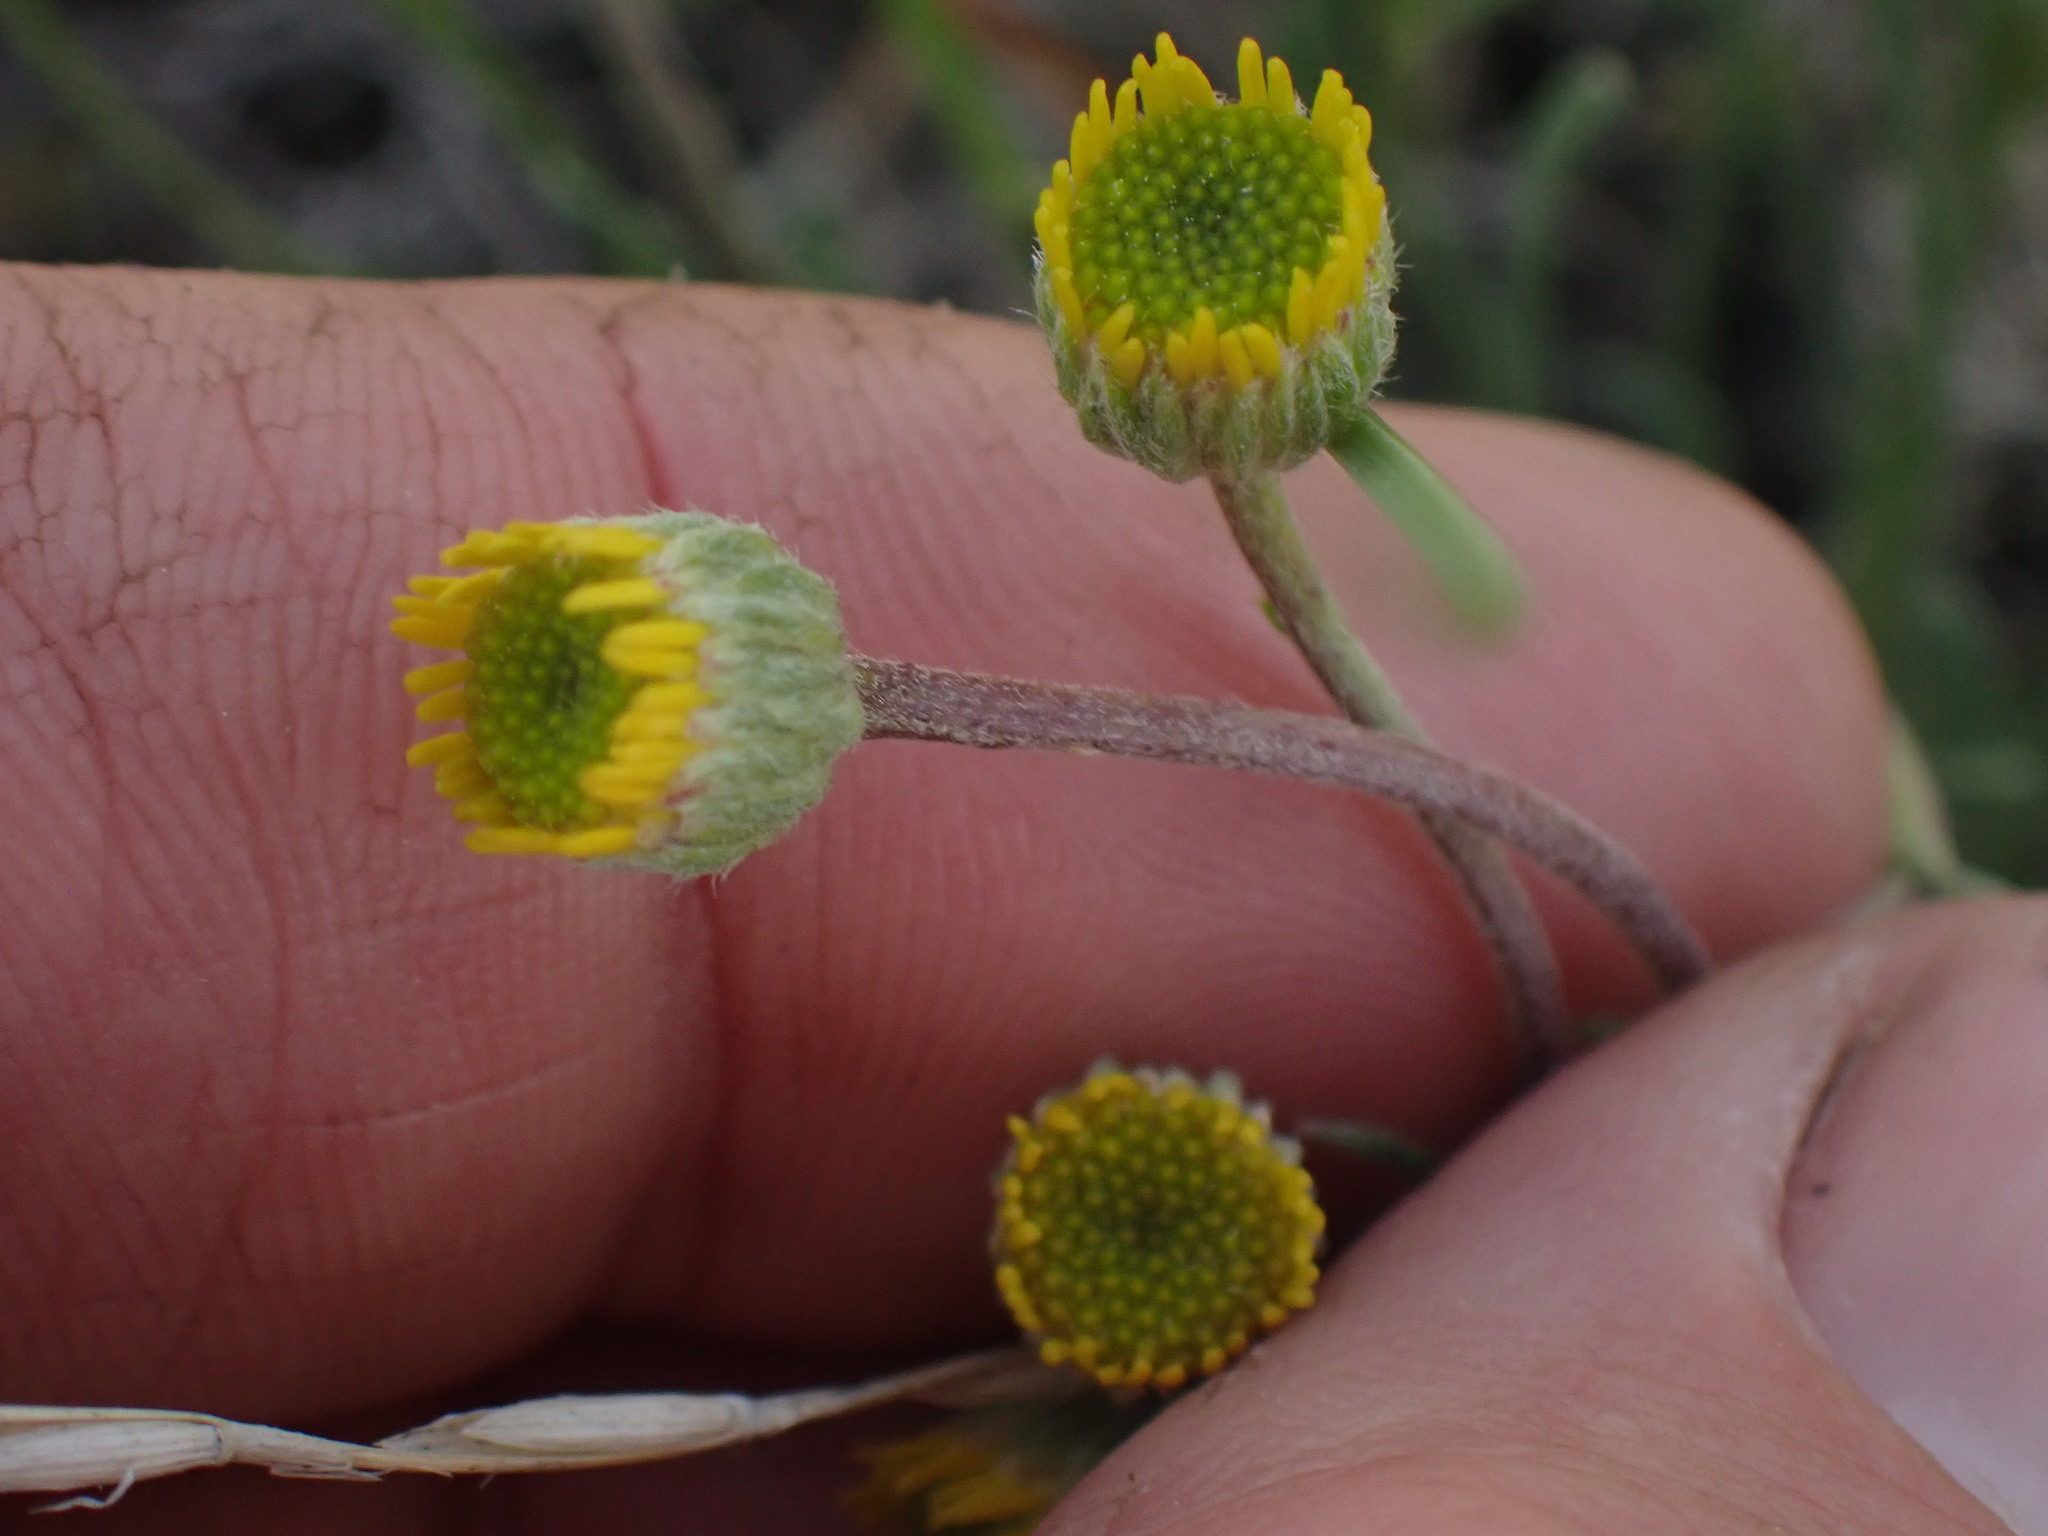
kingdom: Plantae
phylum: Tracheophyta
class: Magnoliopsida
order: Asterales
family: Asteraceae
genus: Erigeron
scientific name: Erigeron linearis
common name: Desert yellow fleabane
